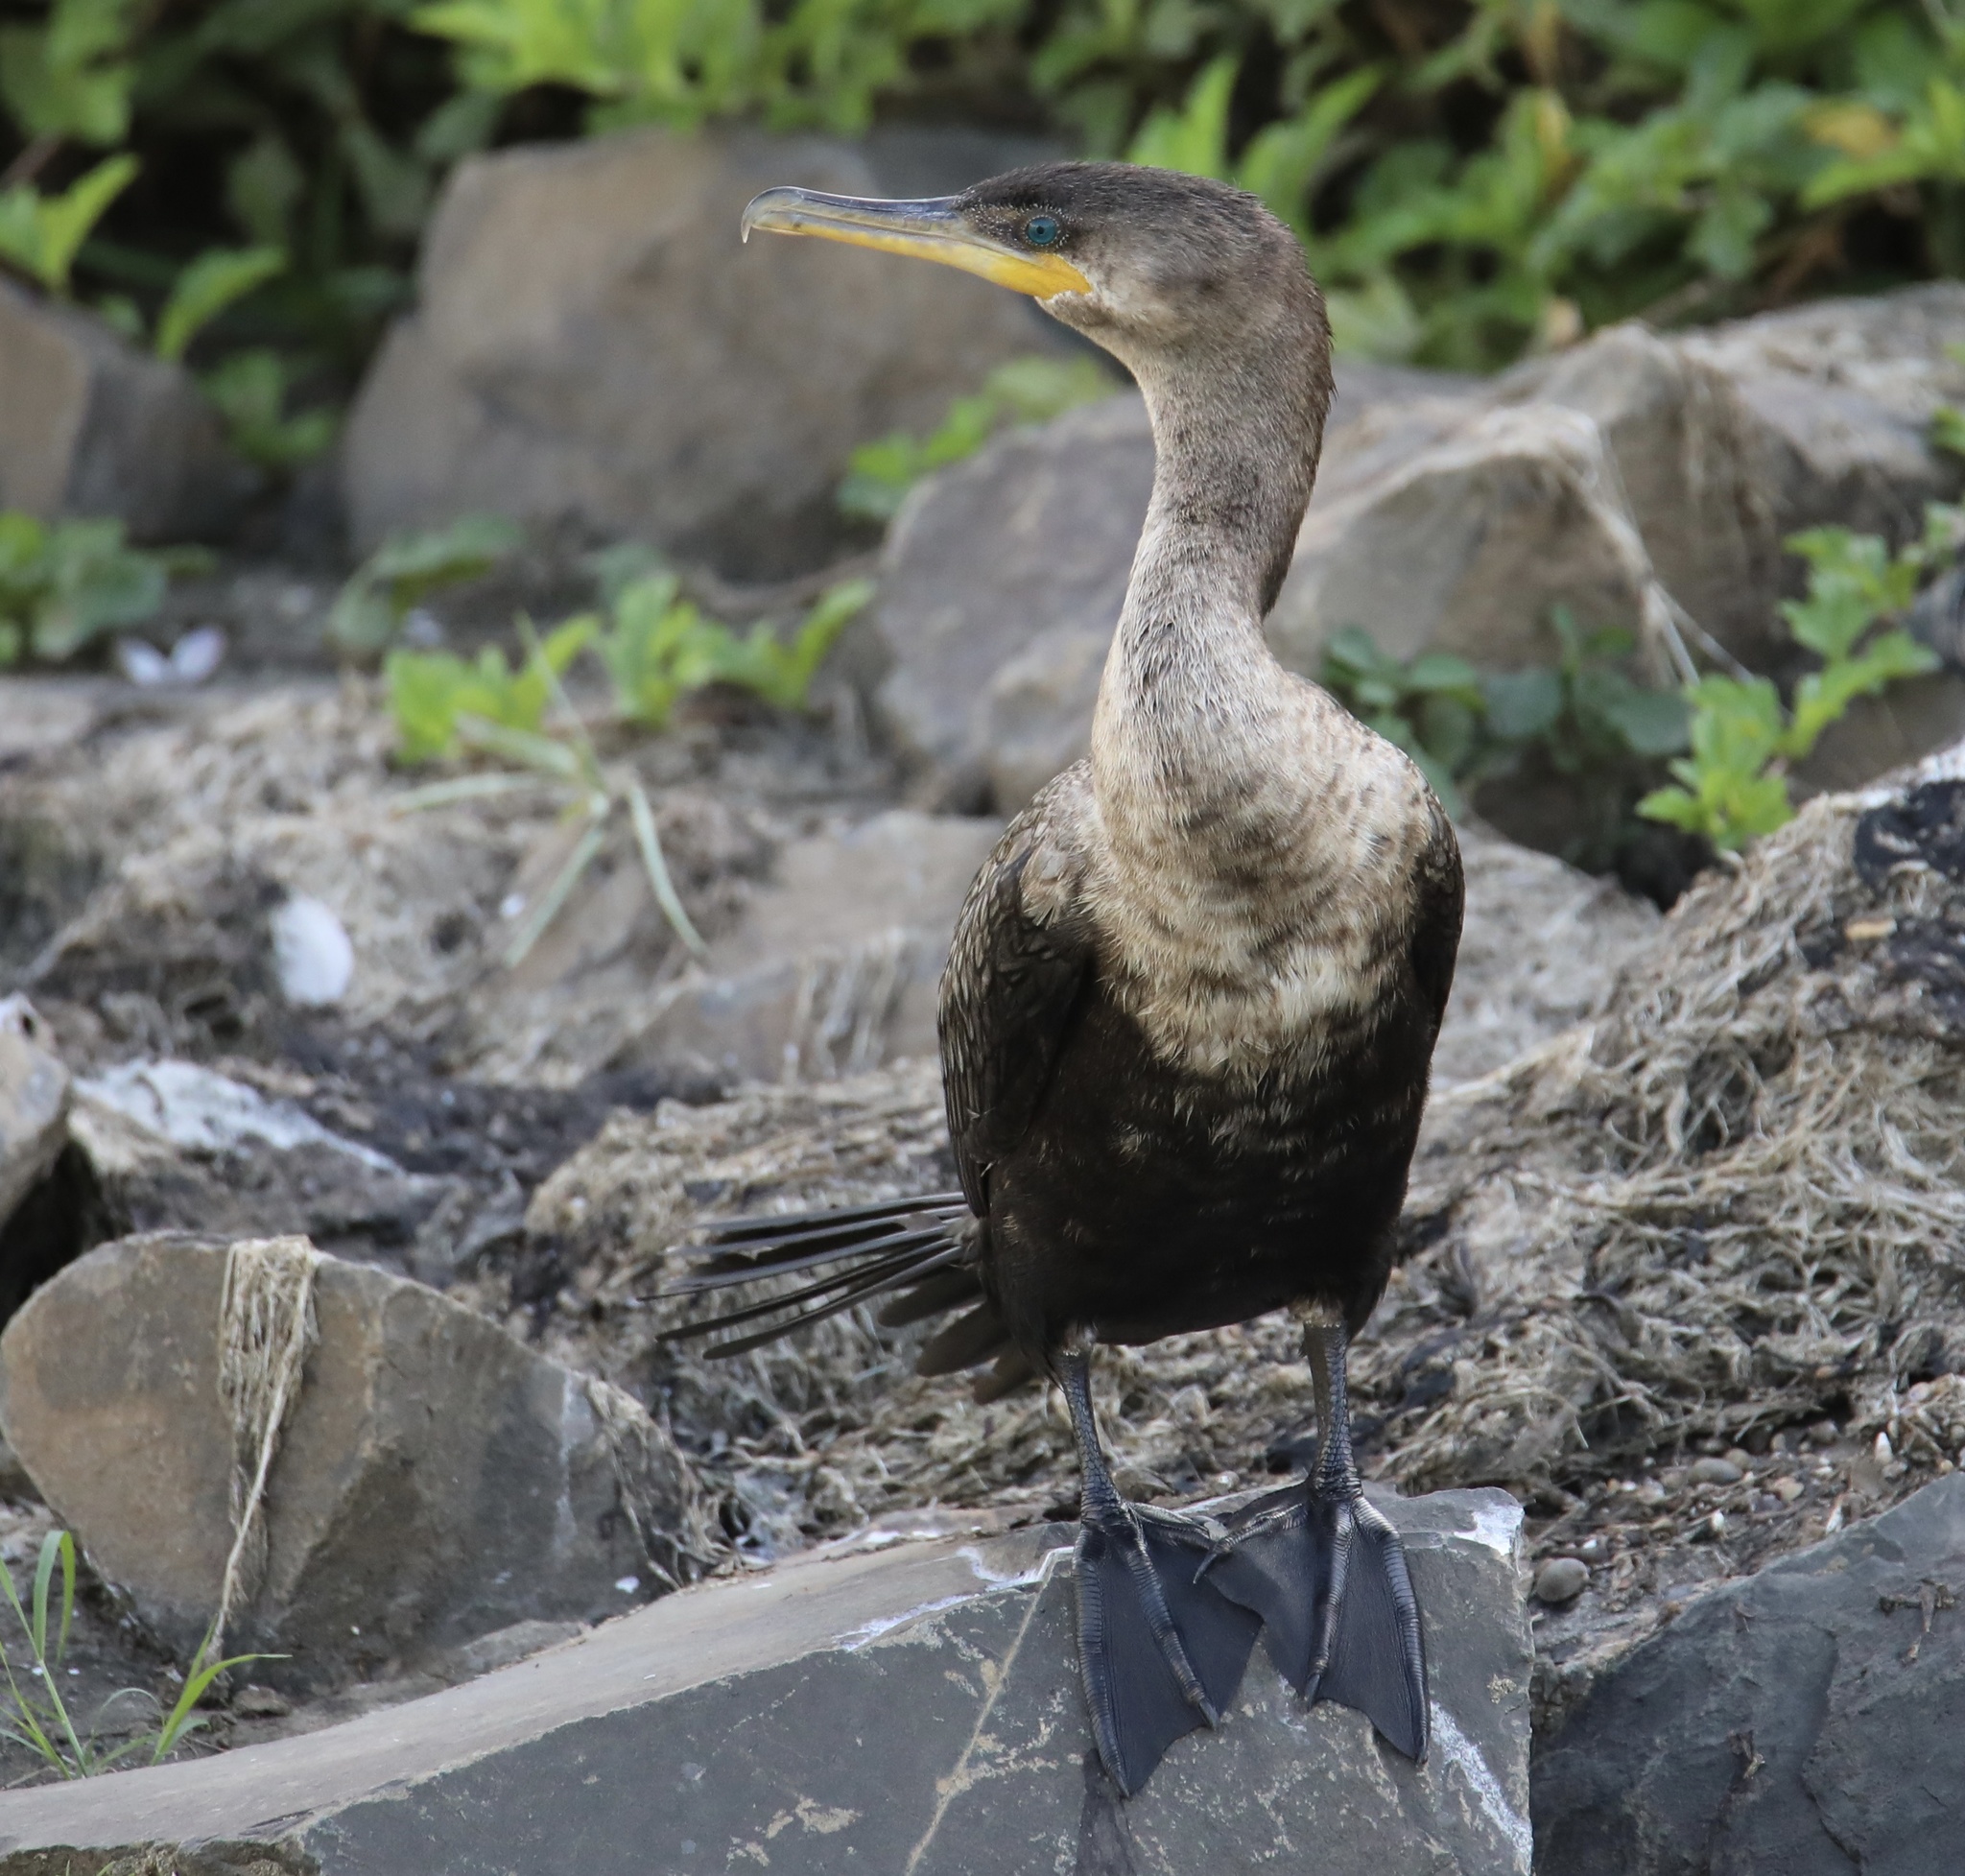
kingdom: Animalia
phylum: Chordata
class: Aves
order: Suliformes
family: Phalacrocoracidae
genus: Phalacrocorax
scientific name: Phalacrocorax brasilianus
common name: Neotropic cormorant
